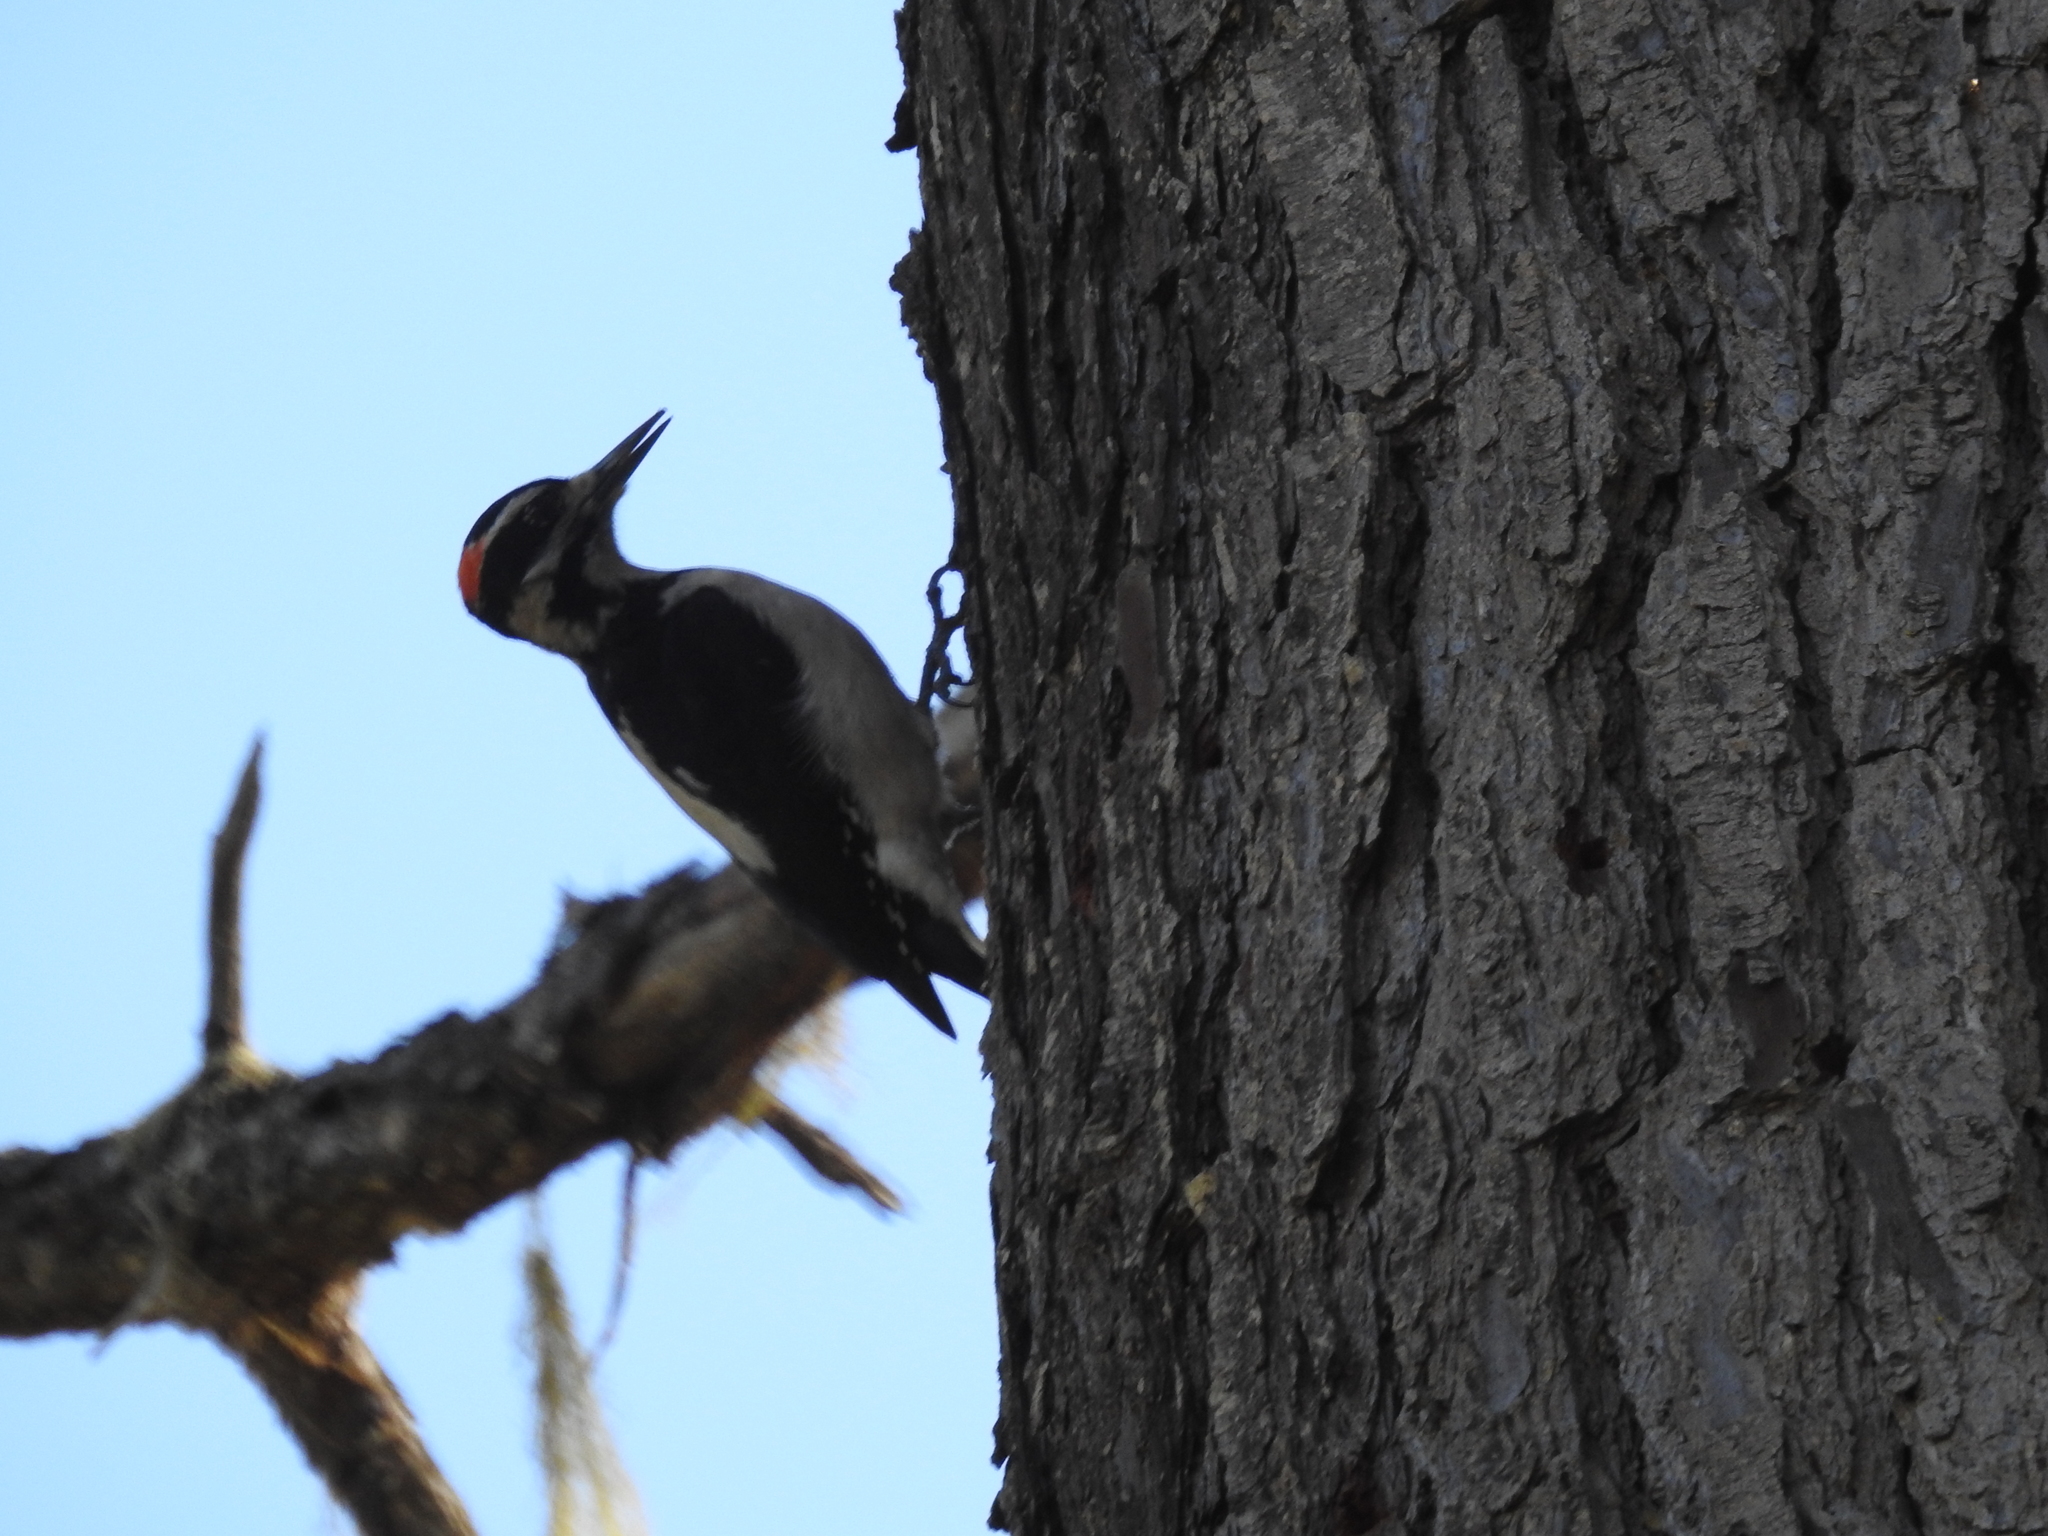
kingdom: Animalia
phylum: Chordata
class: Aves
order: Piciformes
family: Picidae
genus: Leuconotopicus
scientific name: Leuconotopicus villosus
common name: Hairy woodpecker
